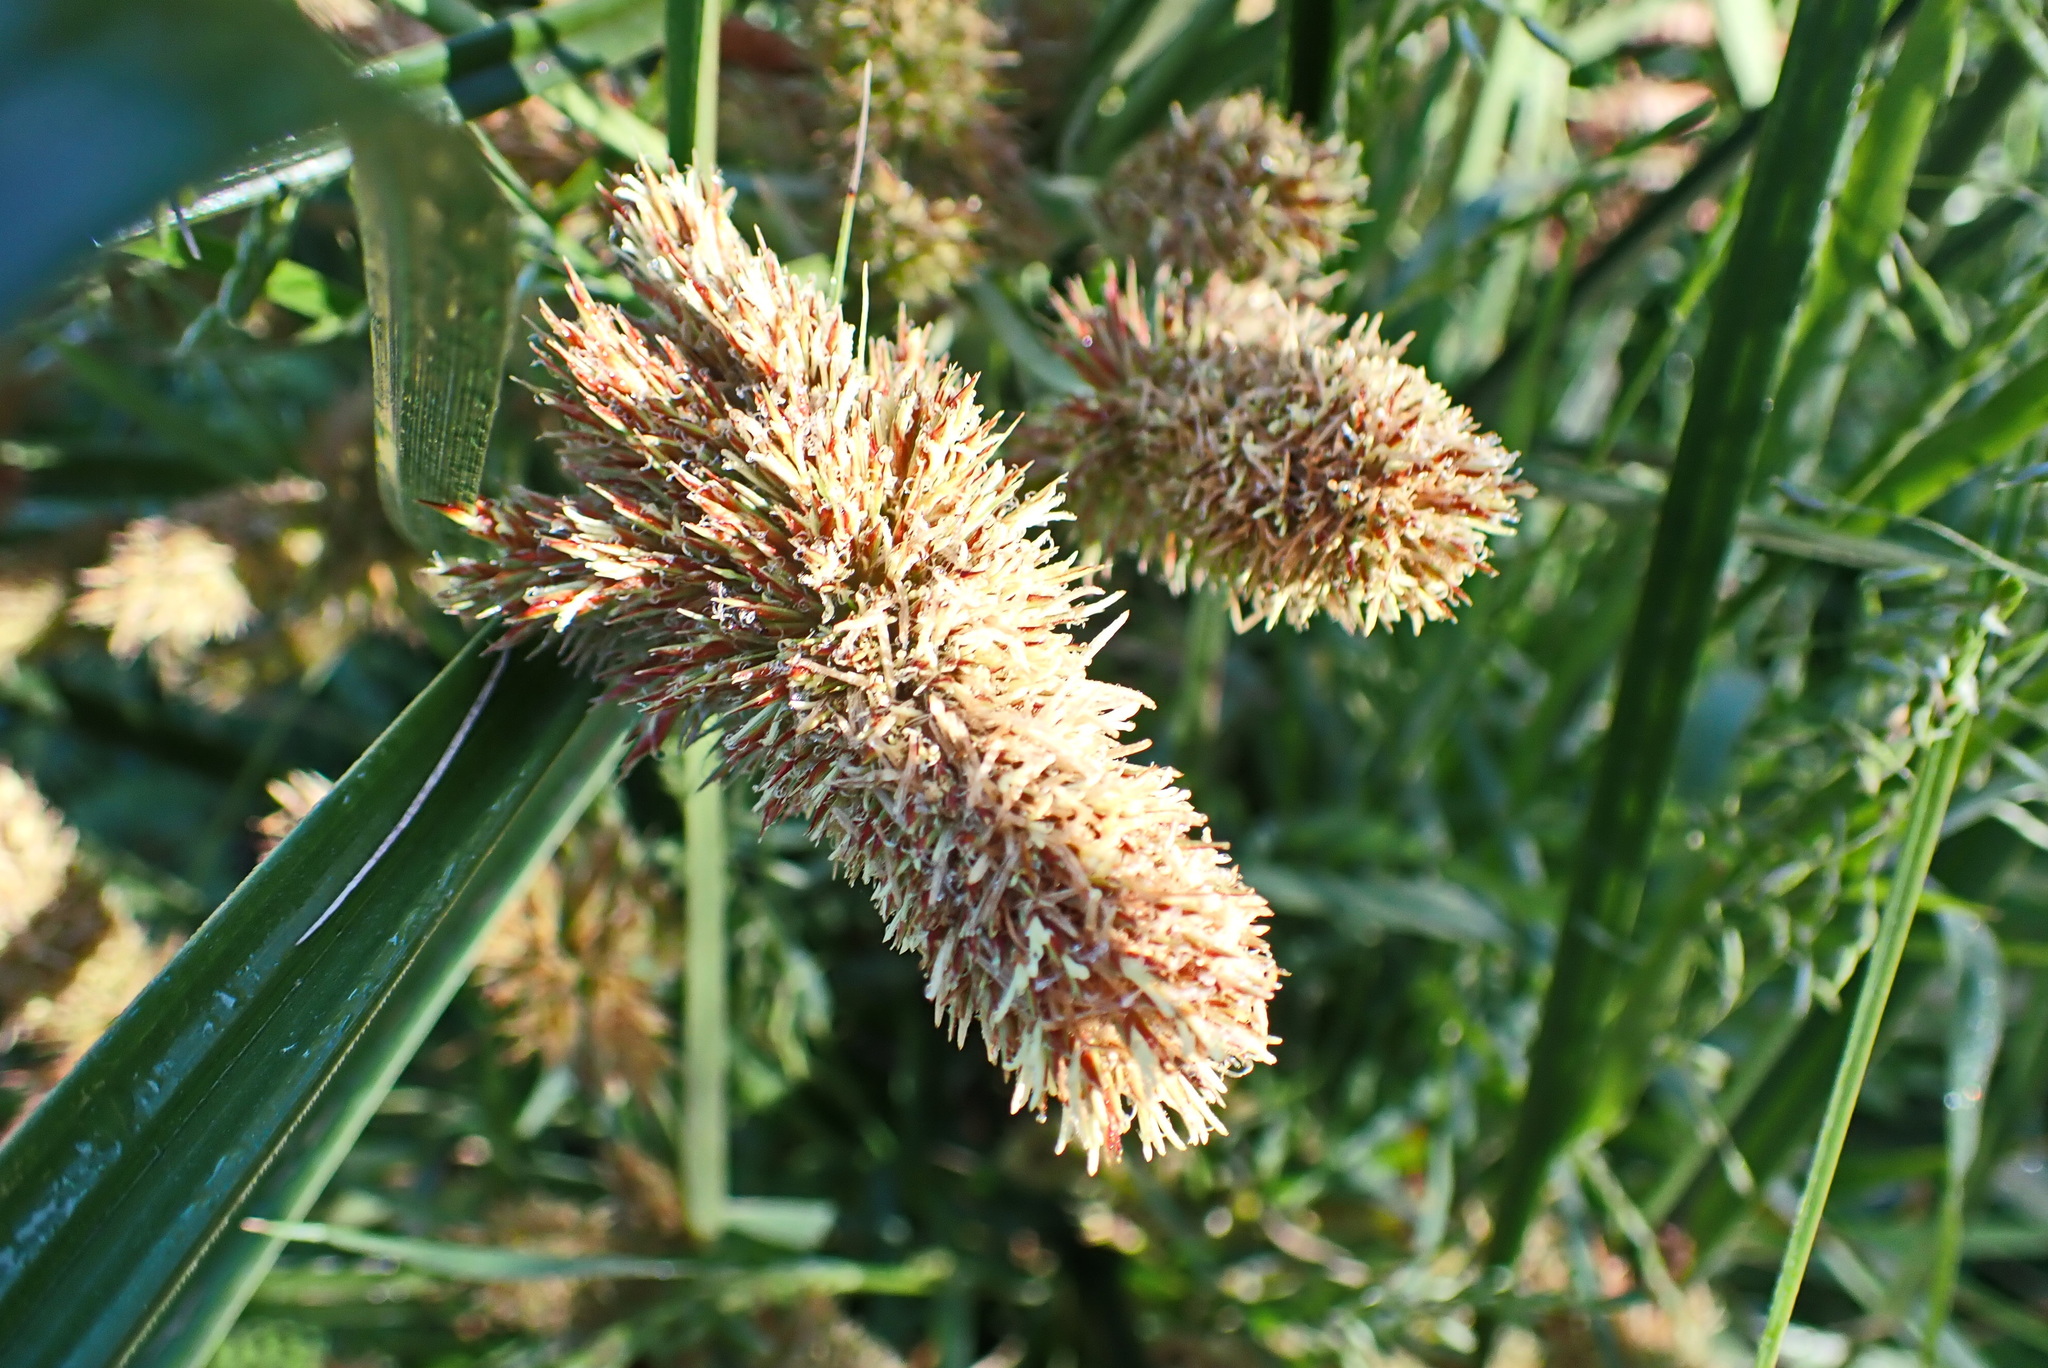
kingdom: Plantae
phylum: Tracheophyta
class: Liliopsida
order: Poales
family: Cyperaceae
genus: Cyperus
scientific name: Cyperus thunbergii
